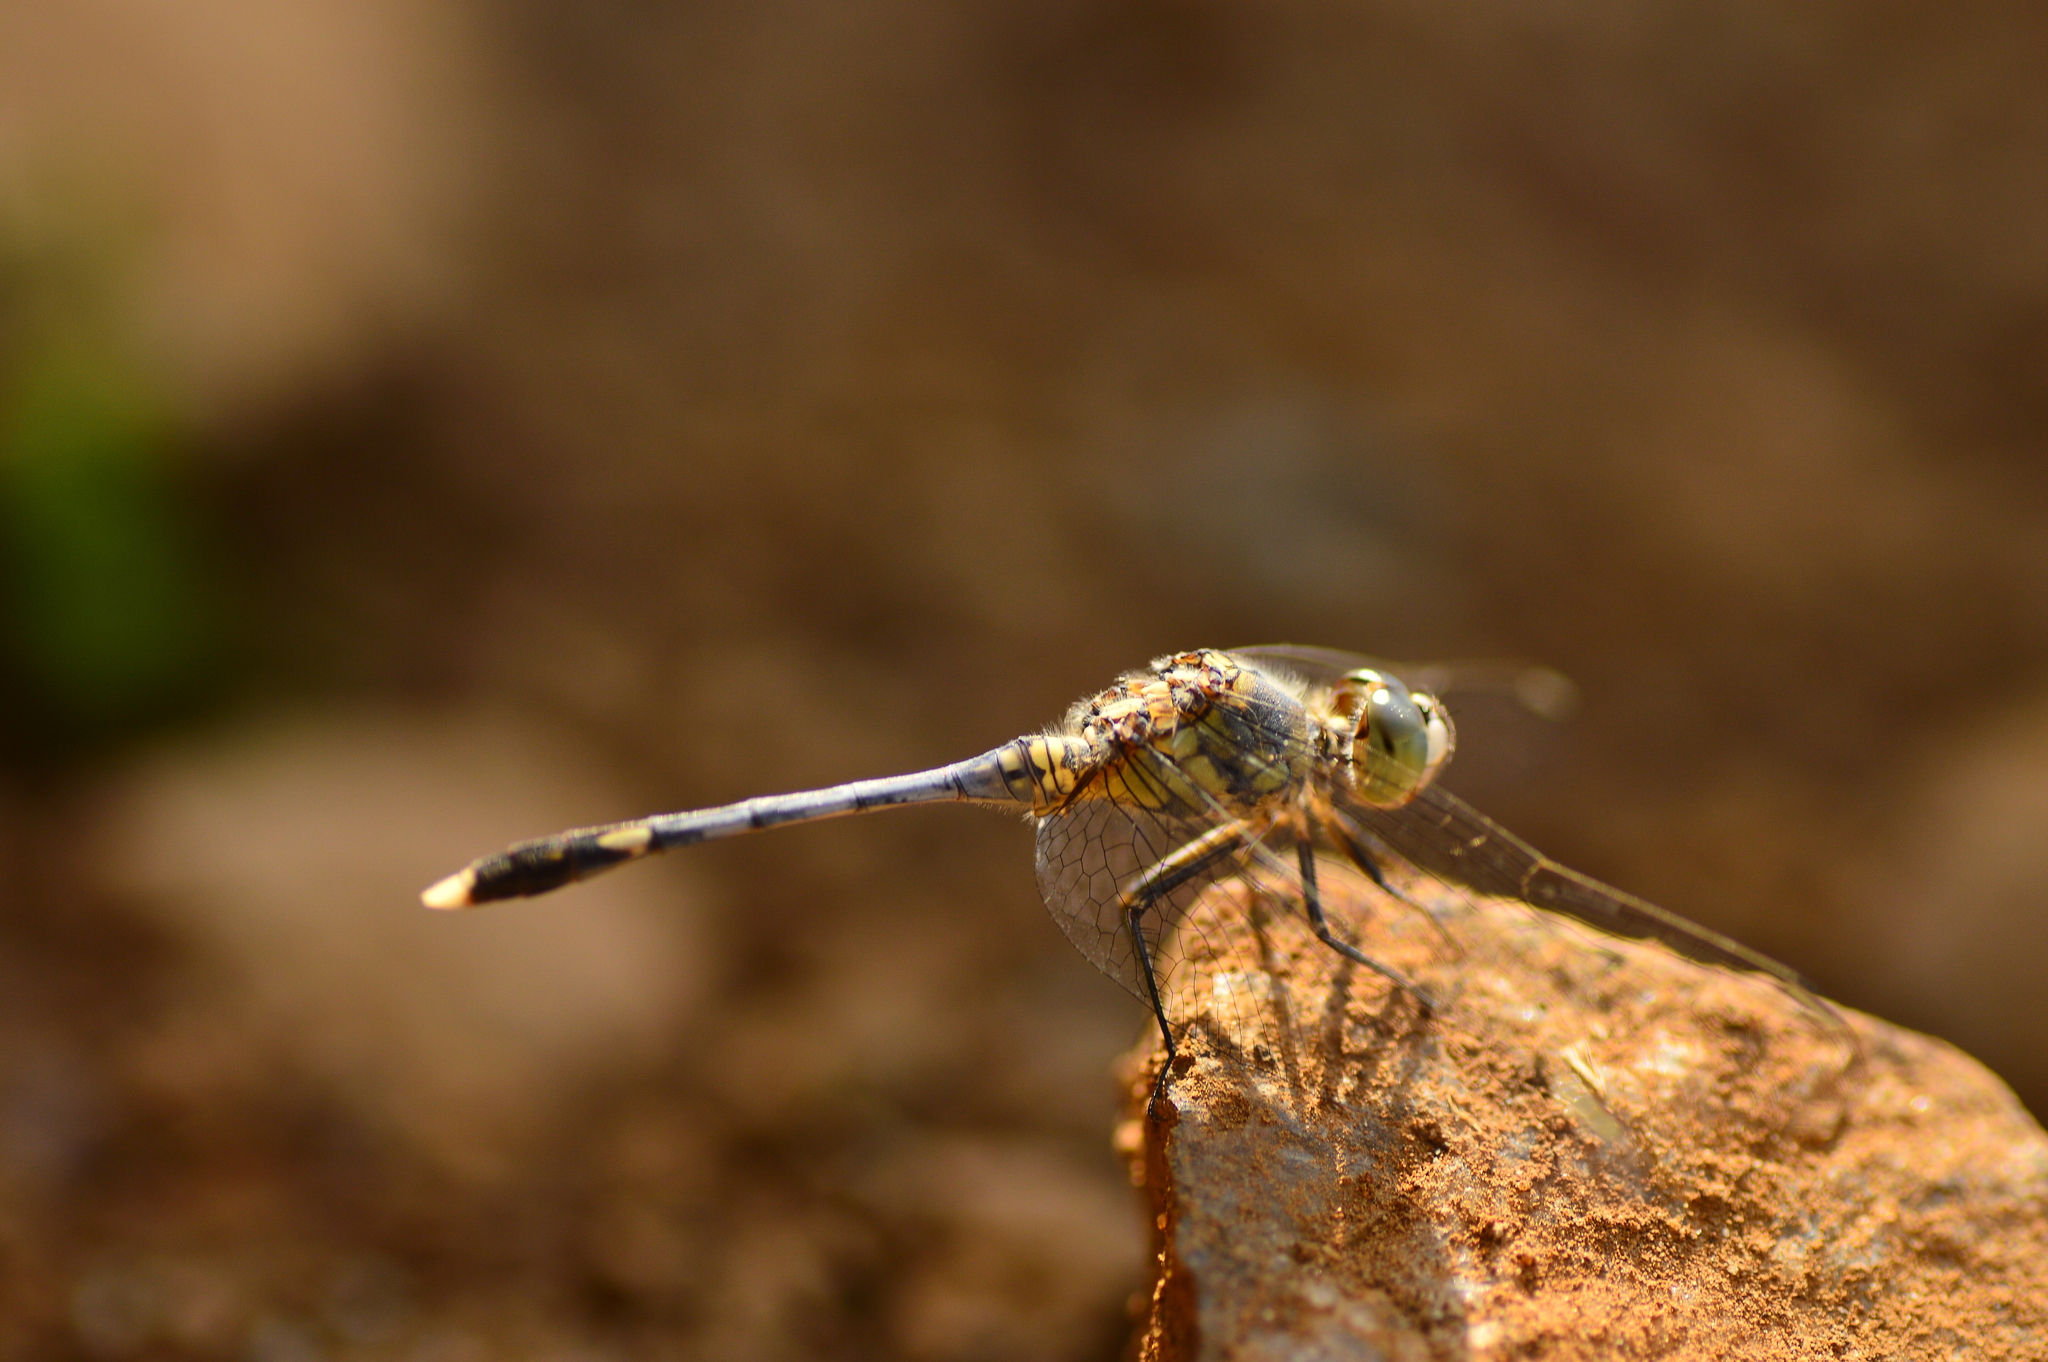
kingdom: Animalia
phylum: Arthropoda
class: Insecta
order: Odonata
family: Libellulidae
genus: Diplacodes
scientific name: Diplacodes trivialis
